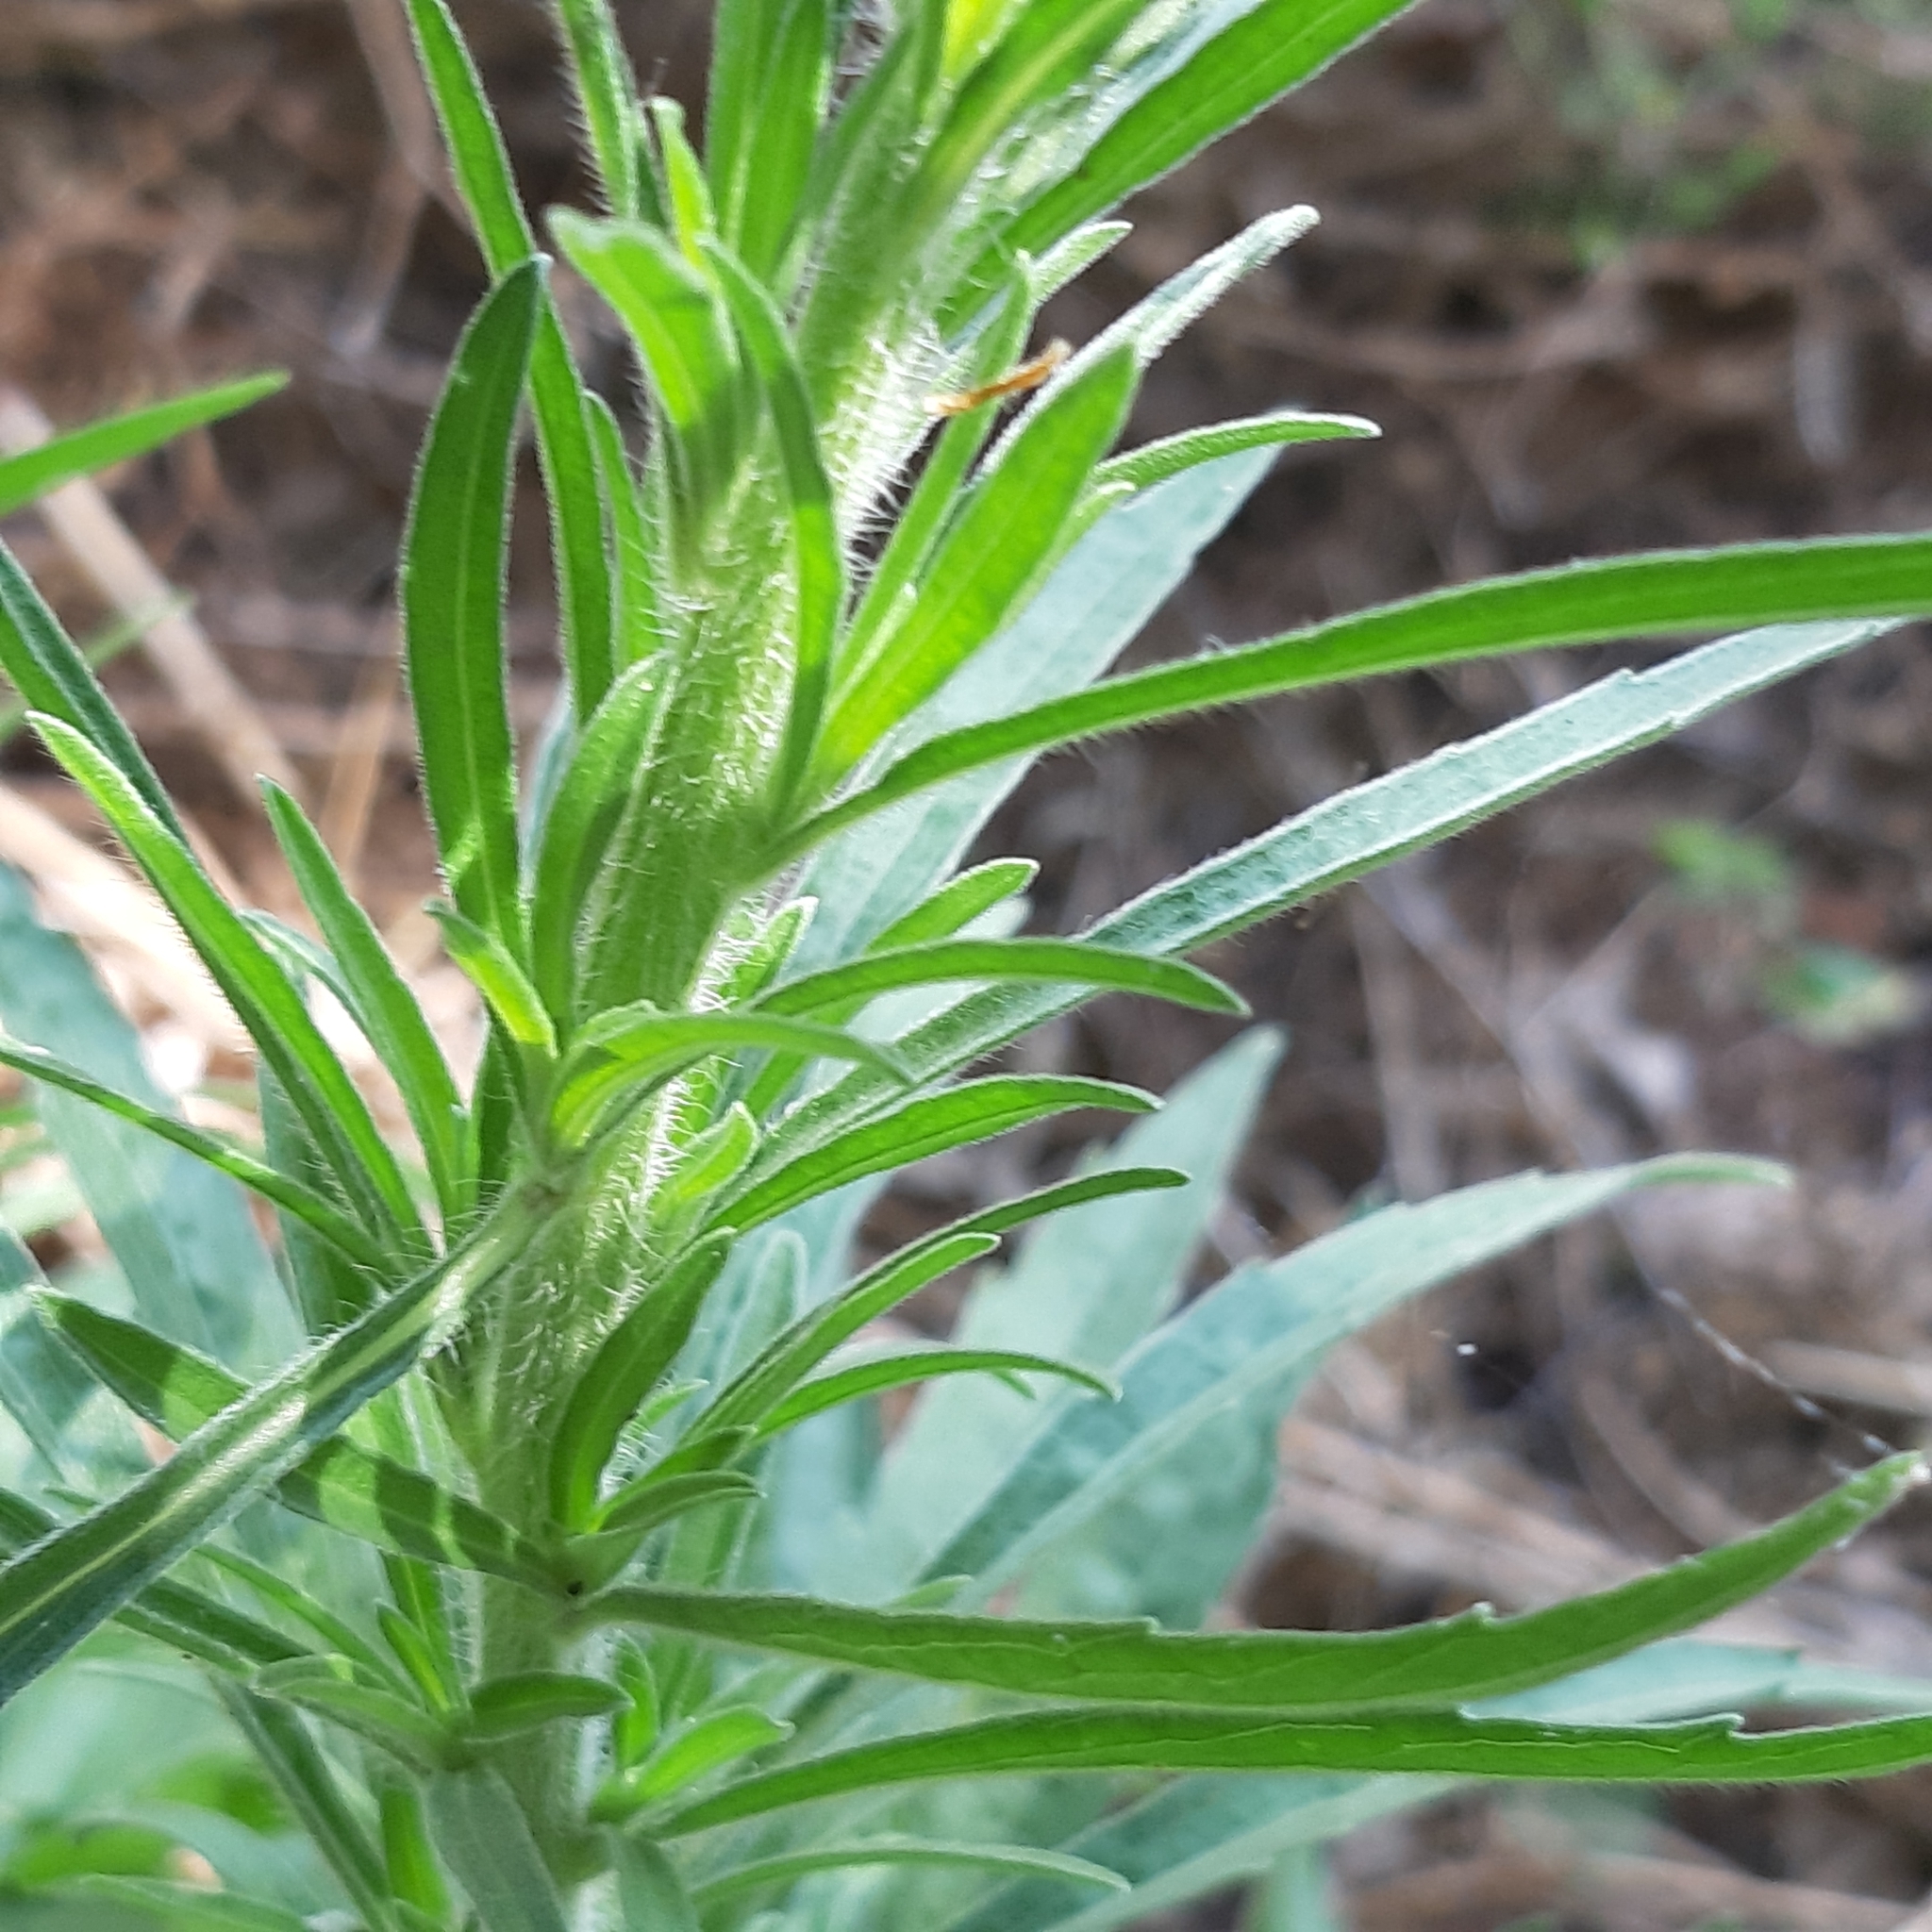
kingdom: Plantae
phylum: Tracheophyta
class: Magnoliopsida
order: Asterales
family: Asteraceae
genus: Erigeron
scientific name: Erigeron canadensis
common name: Canadian fleabane
